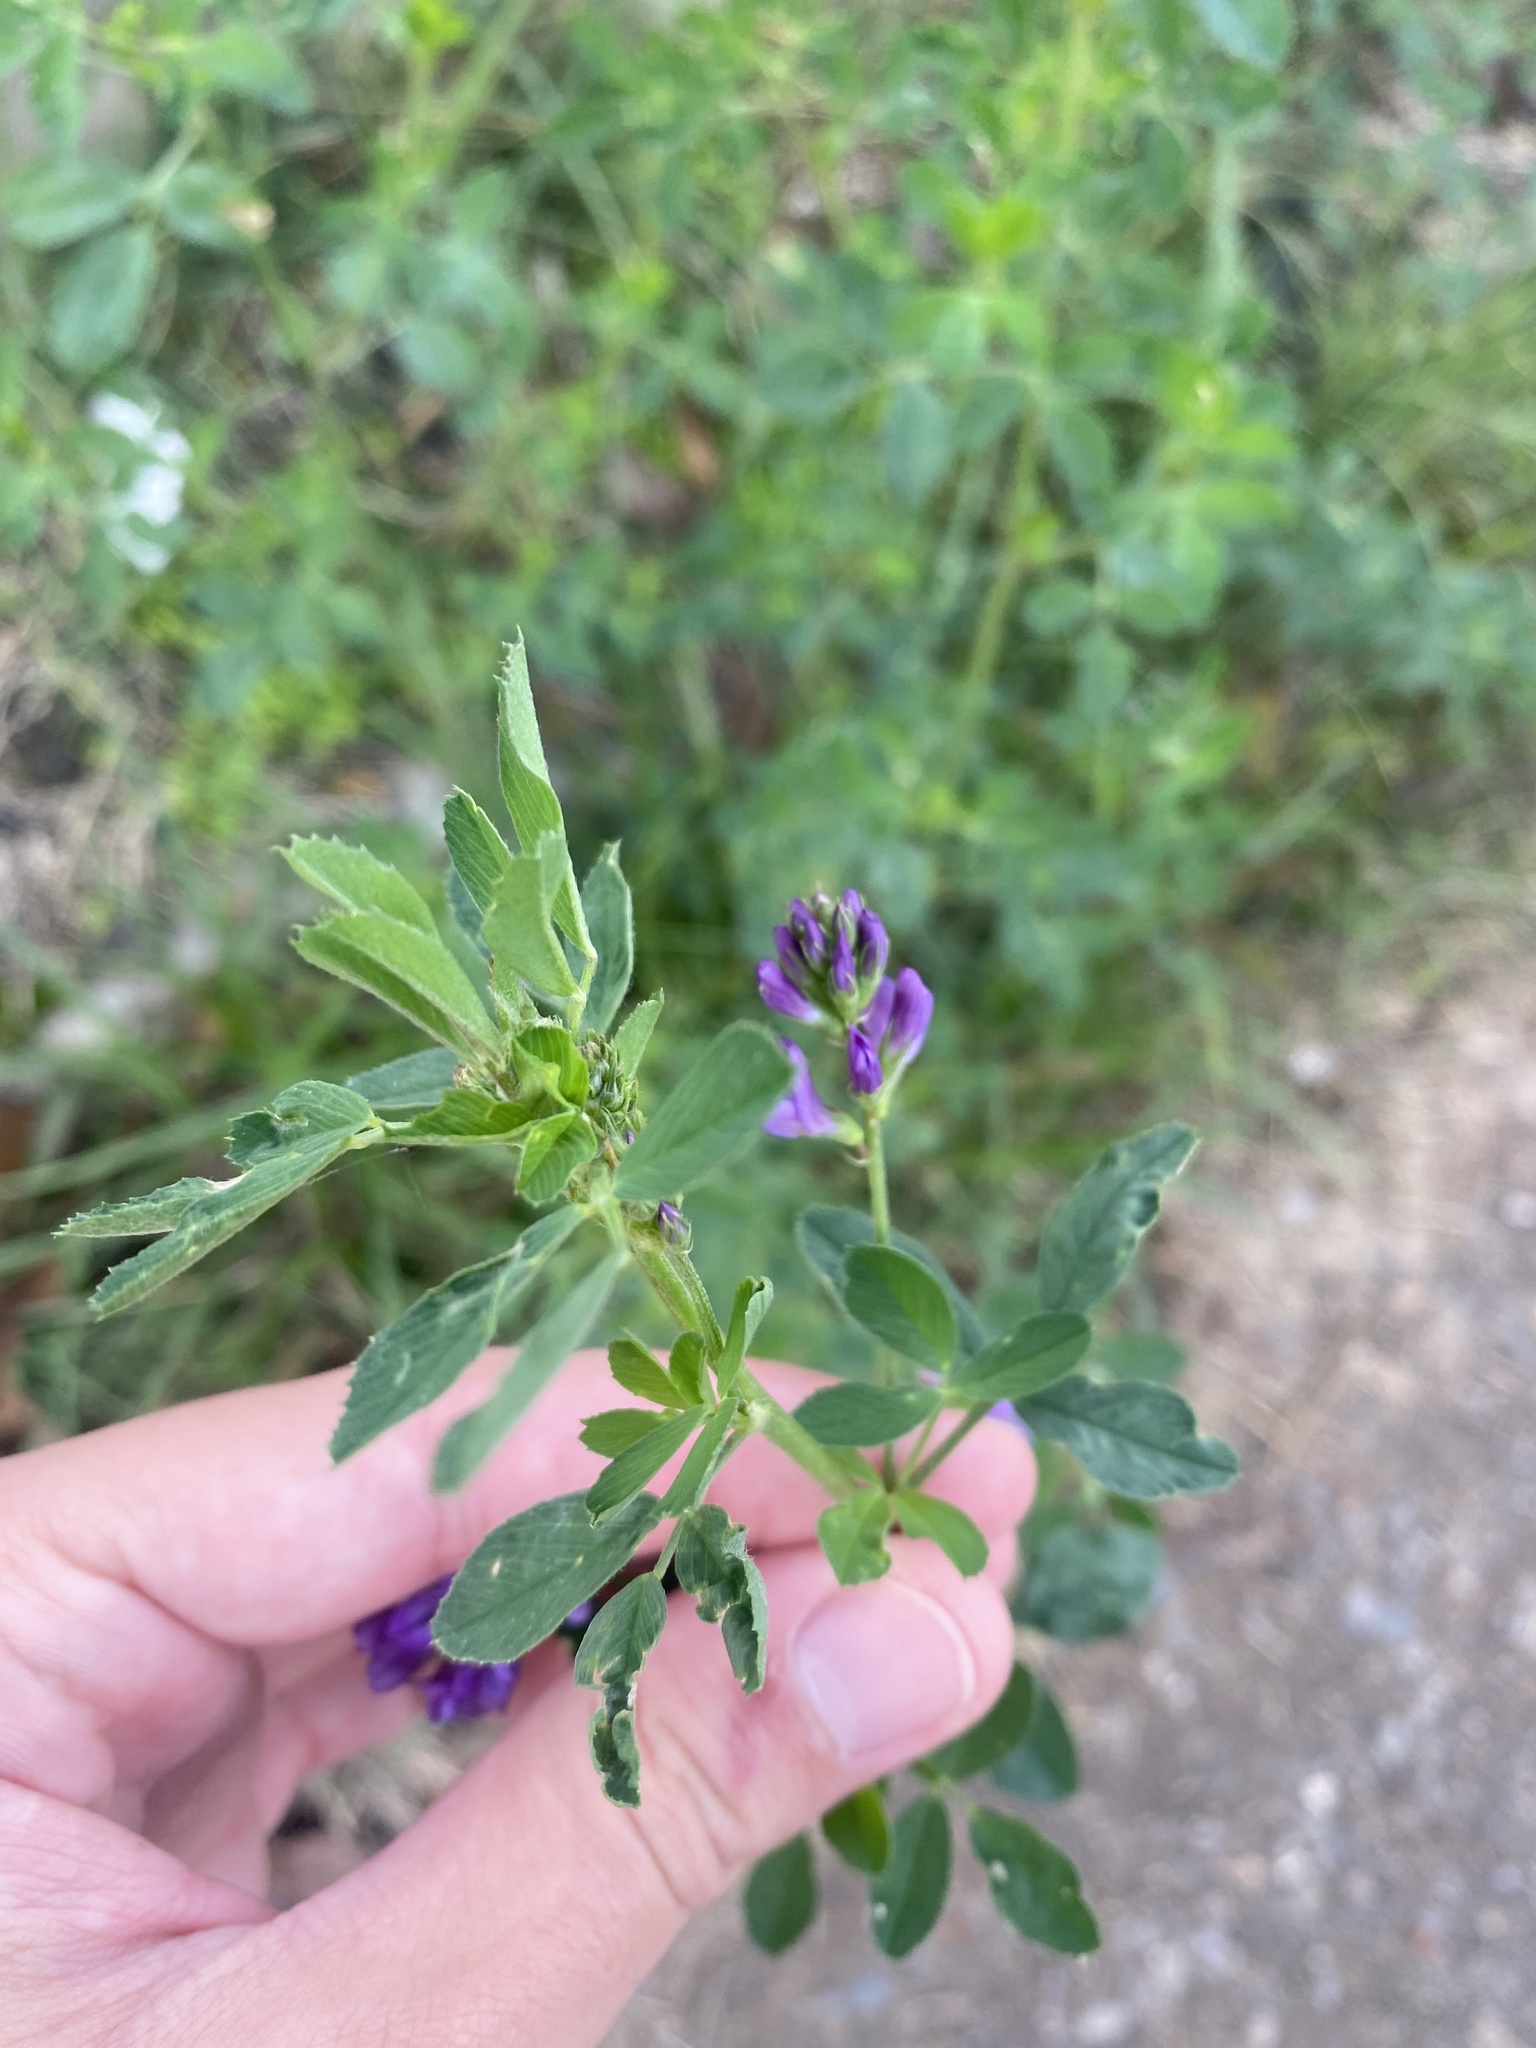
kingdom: Plantae
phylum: Tracheophyta
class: Magnoliopsida
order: Fabales
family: Fabaceae
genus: Medicago
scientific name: Medicago sativa
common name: Alfalfa
